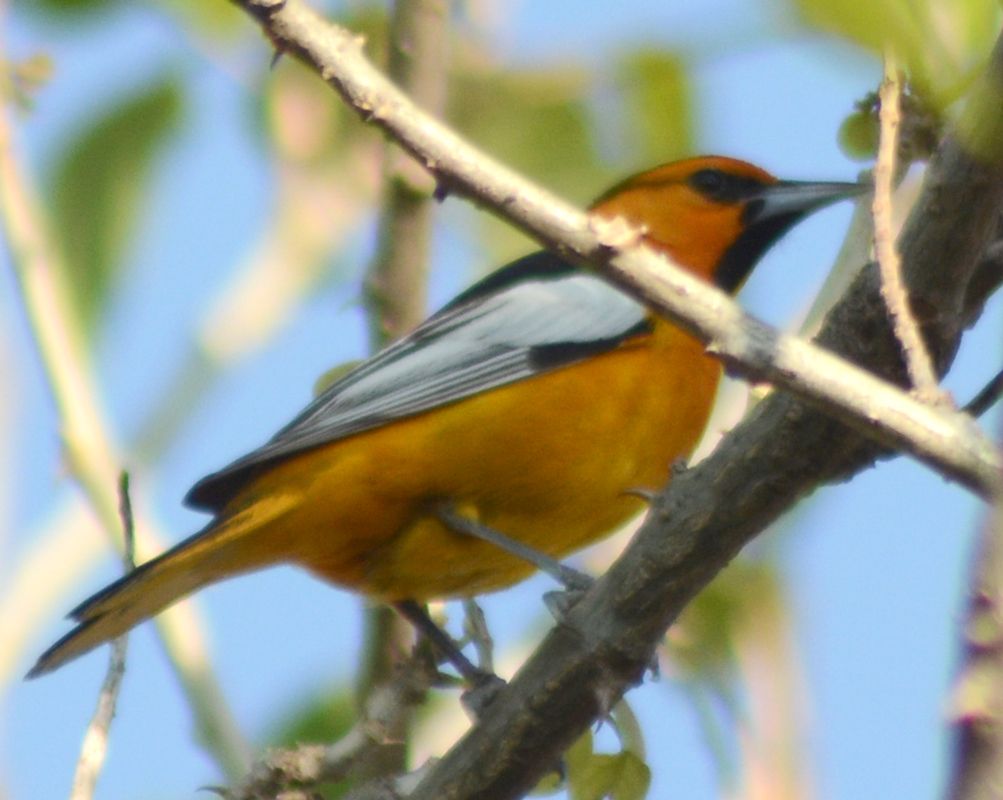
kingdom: Animalia
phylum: Chordata
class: Aves
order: Passeriformes
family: Icteridae
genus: Icterus
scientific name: Icterus bullockii
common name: Bullock's oriole
